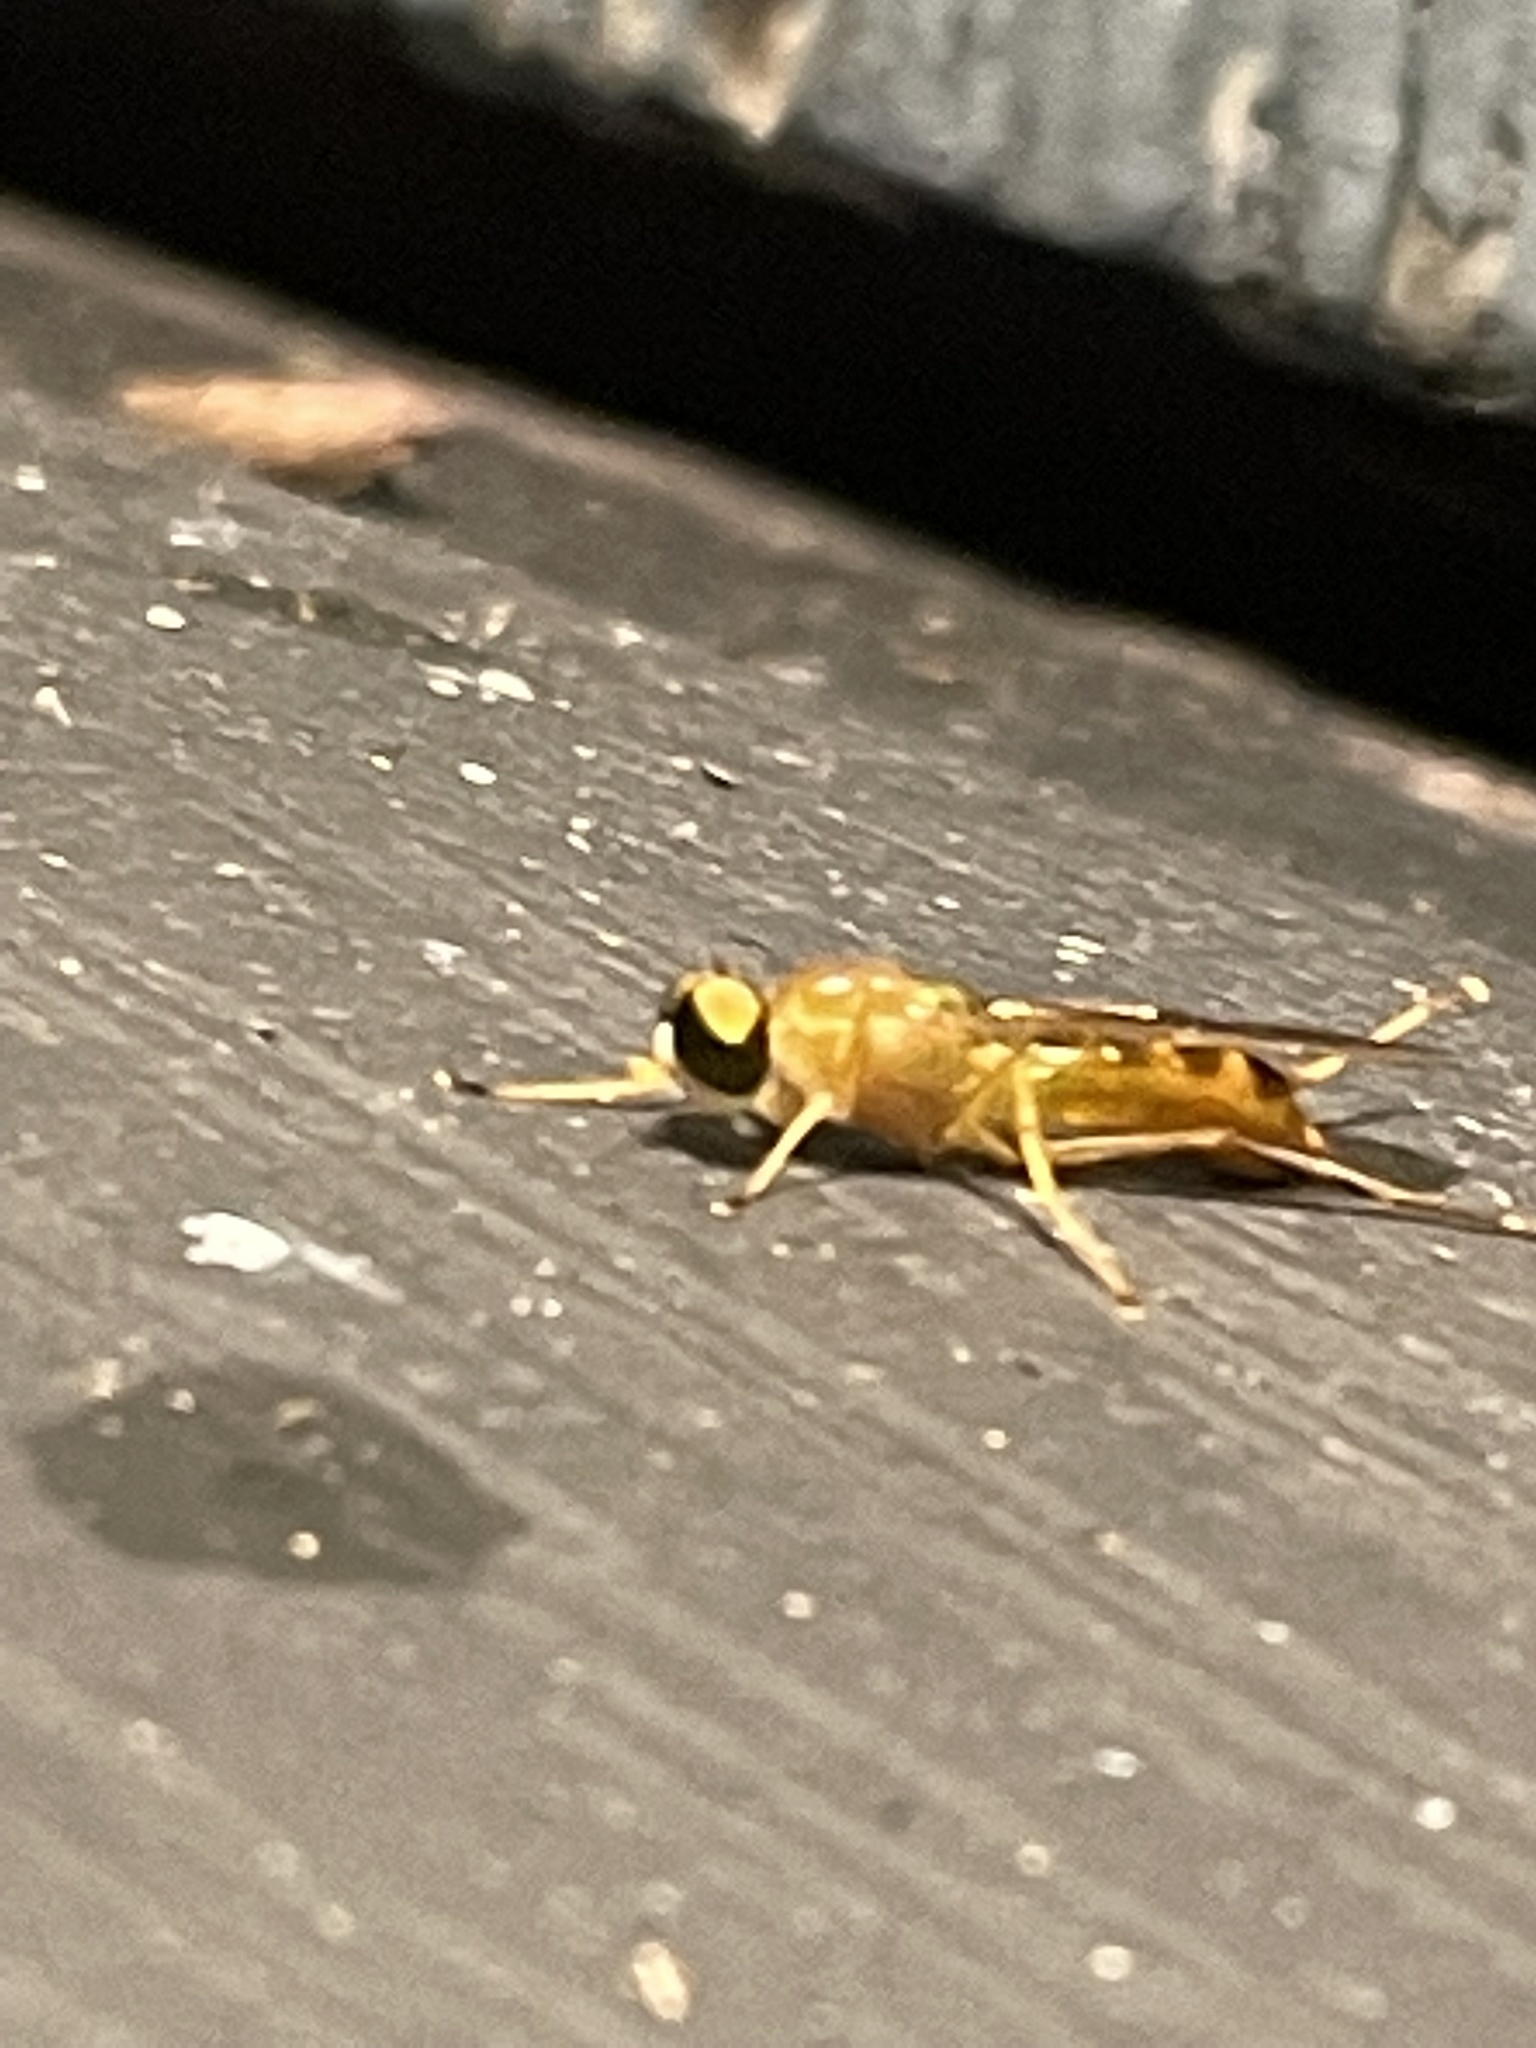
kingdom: Animalia
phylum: Arthropoda
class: Insecta
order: Diptera
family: Stratiomyidae
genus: Ptecticus
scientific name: Ptecticus trivittatus
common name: Compost fly
